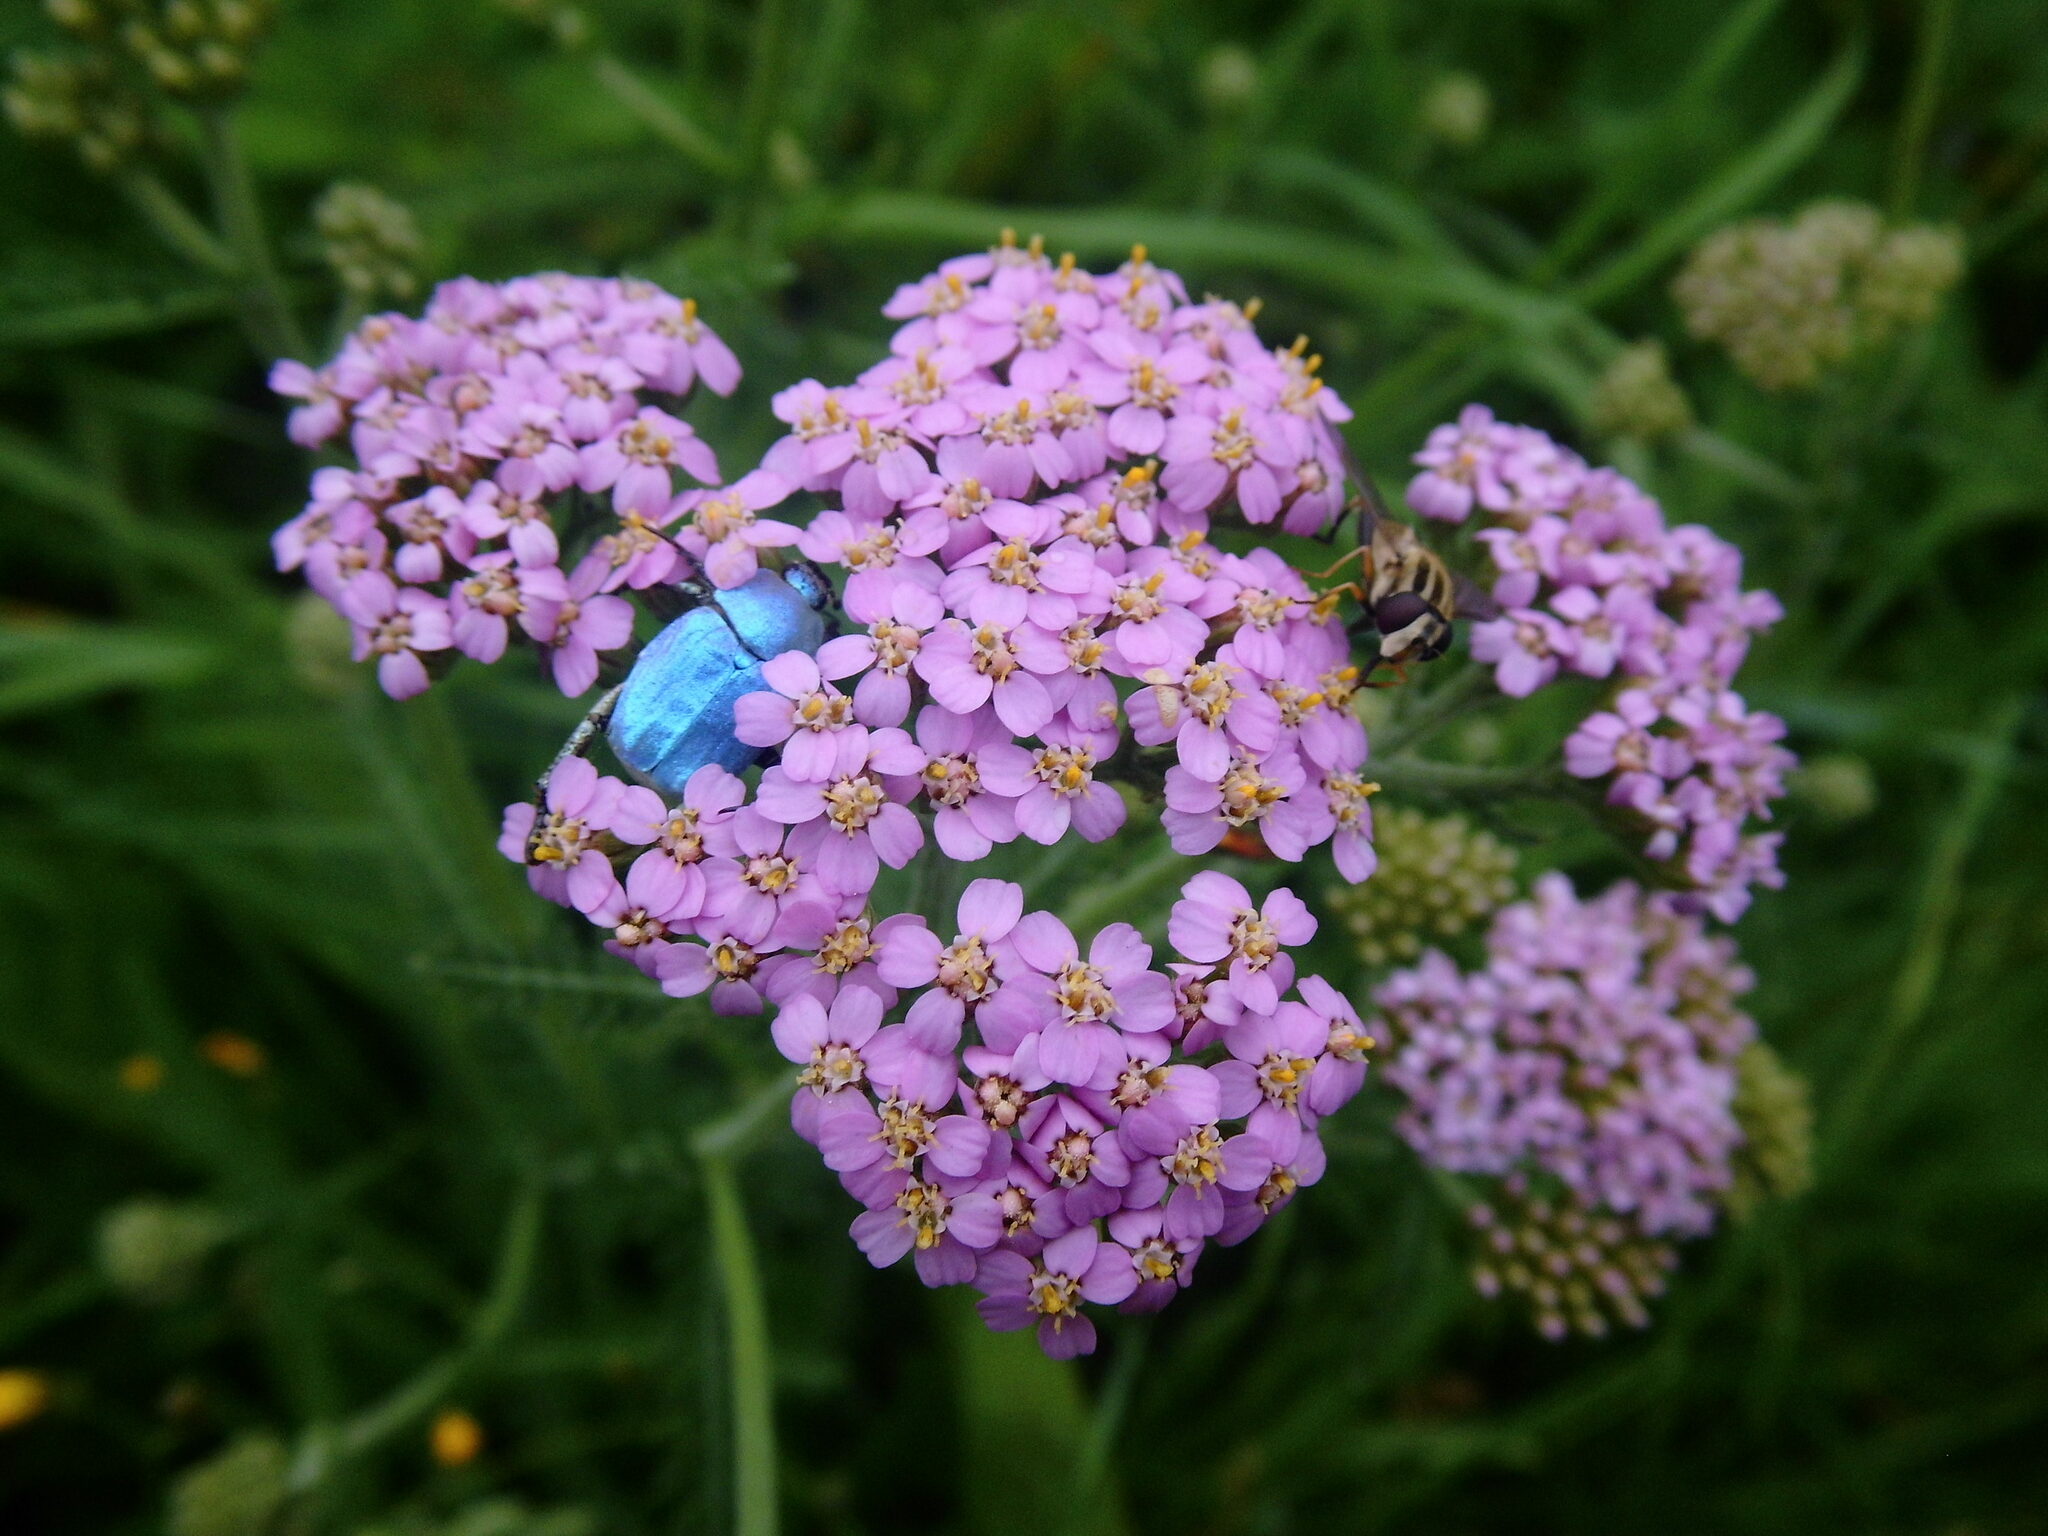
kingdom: Animalia
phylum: Arthropoda
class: Insecta
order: Coleoptera
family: Scarabaeidae
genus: Hoplia
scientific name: Hoplia coerulea
